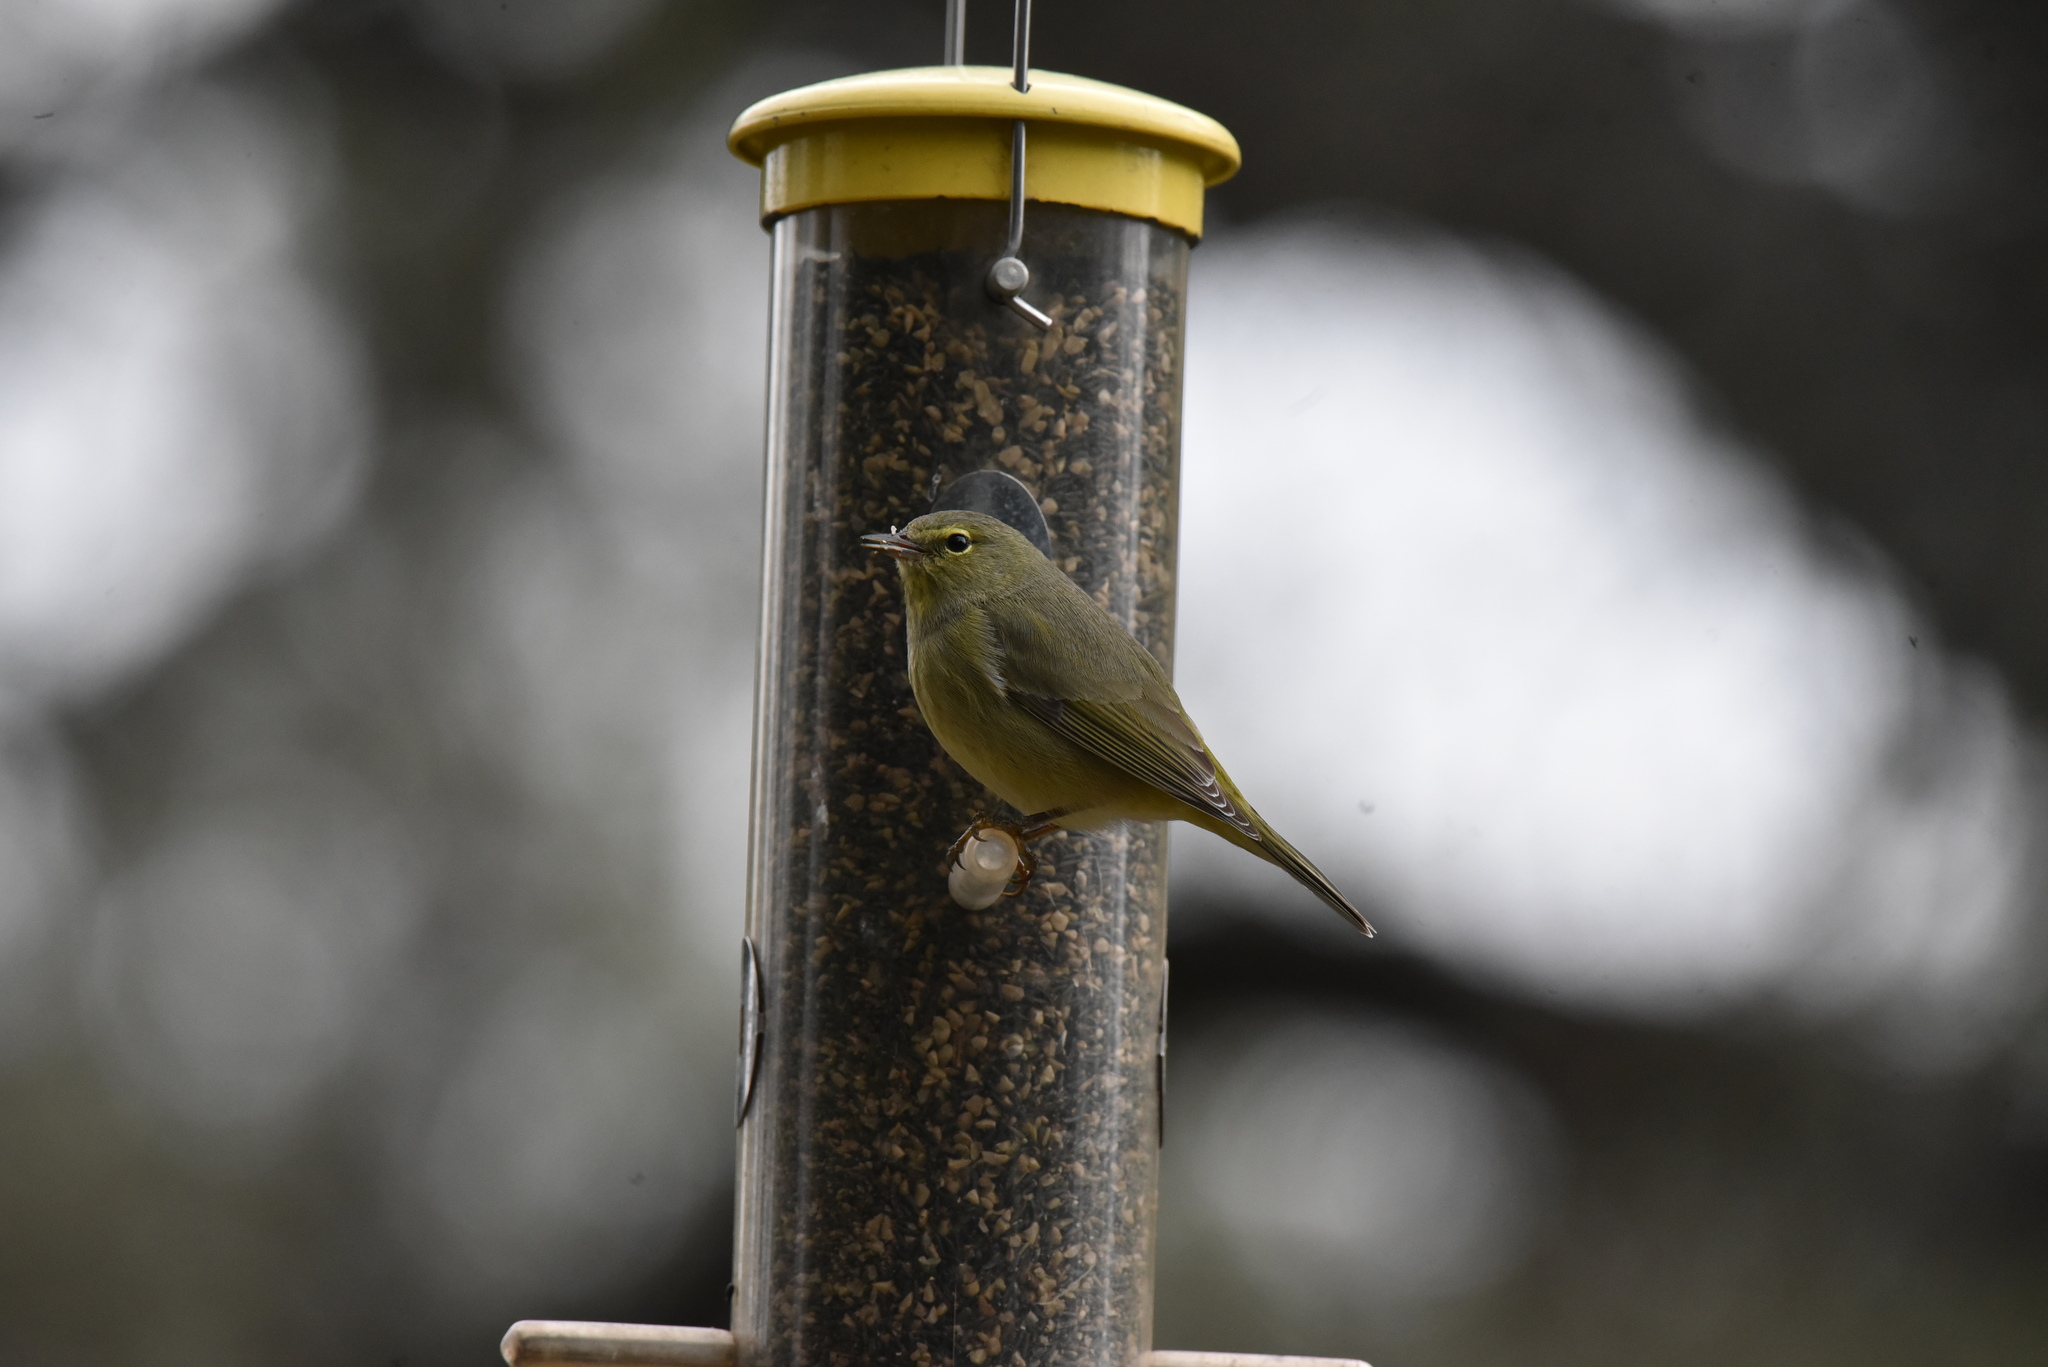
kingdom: Animalia
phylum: Chordata
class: Aves
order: Passeriformes
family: Parulidae
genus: Leiothlypis
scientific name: Leiothlypis celata
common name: Orange-crowned warbler
